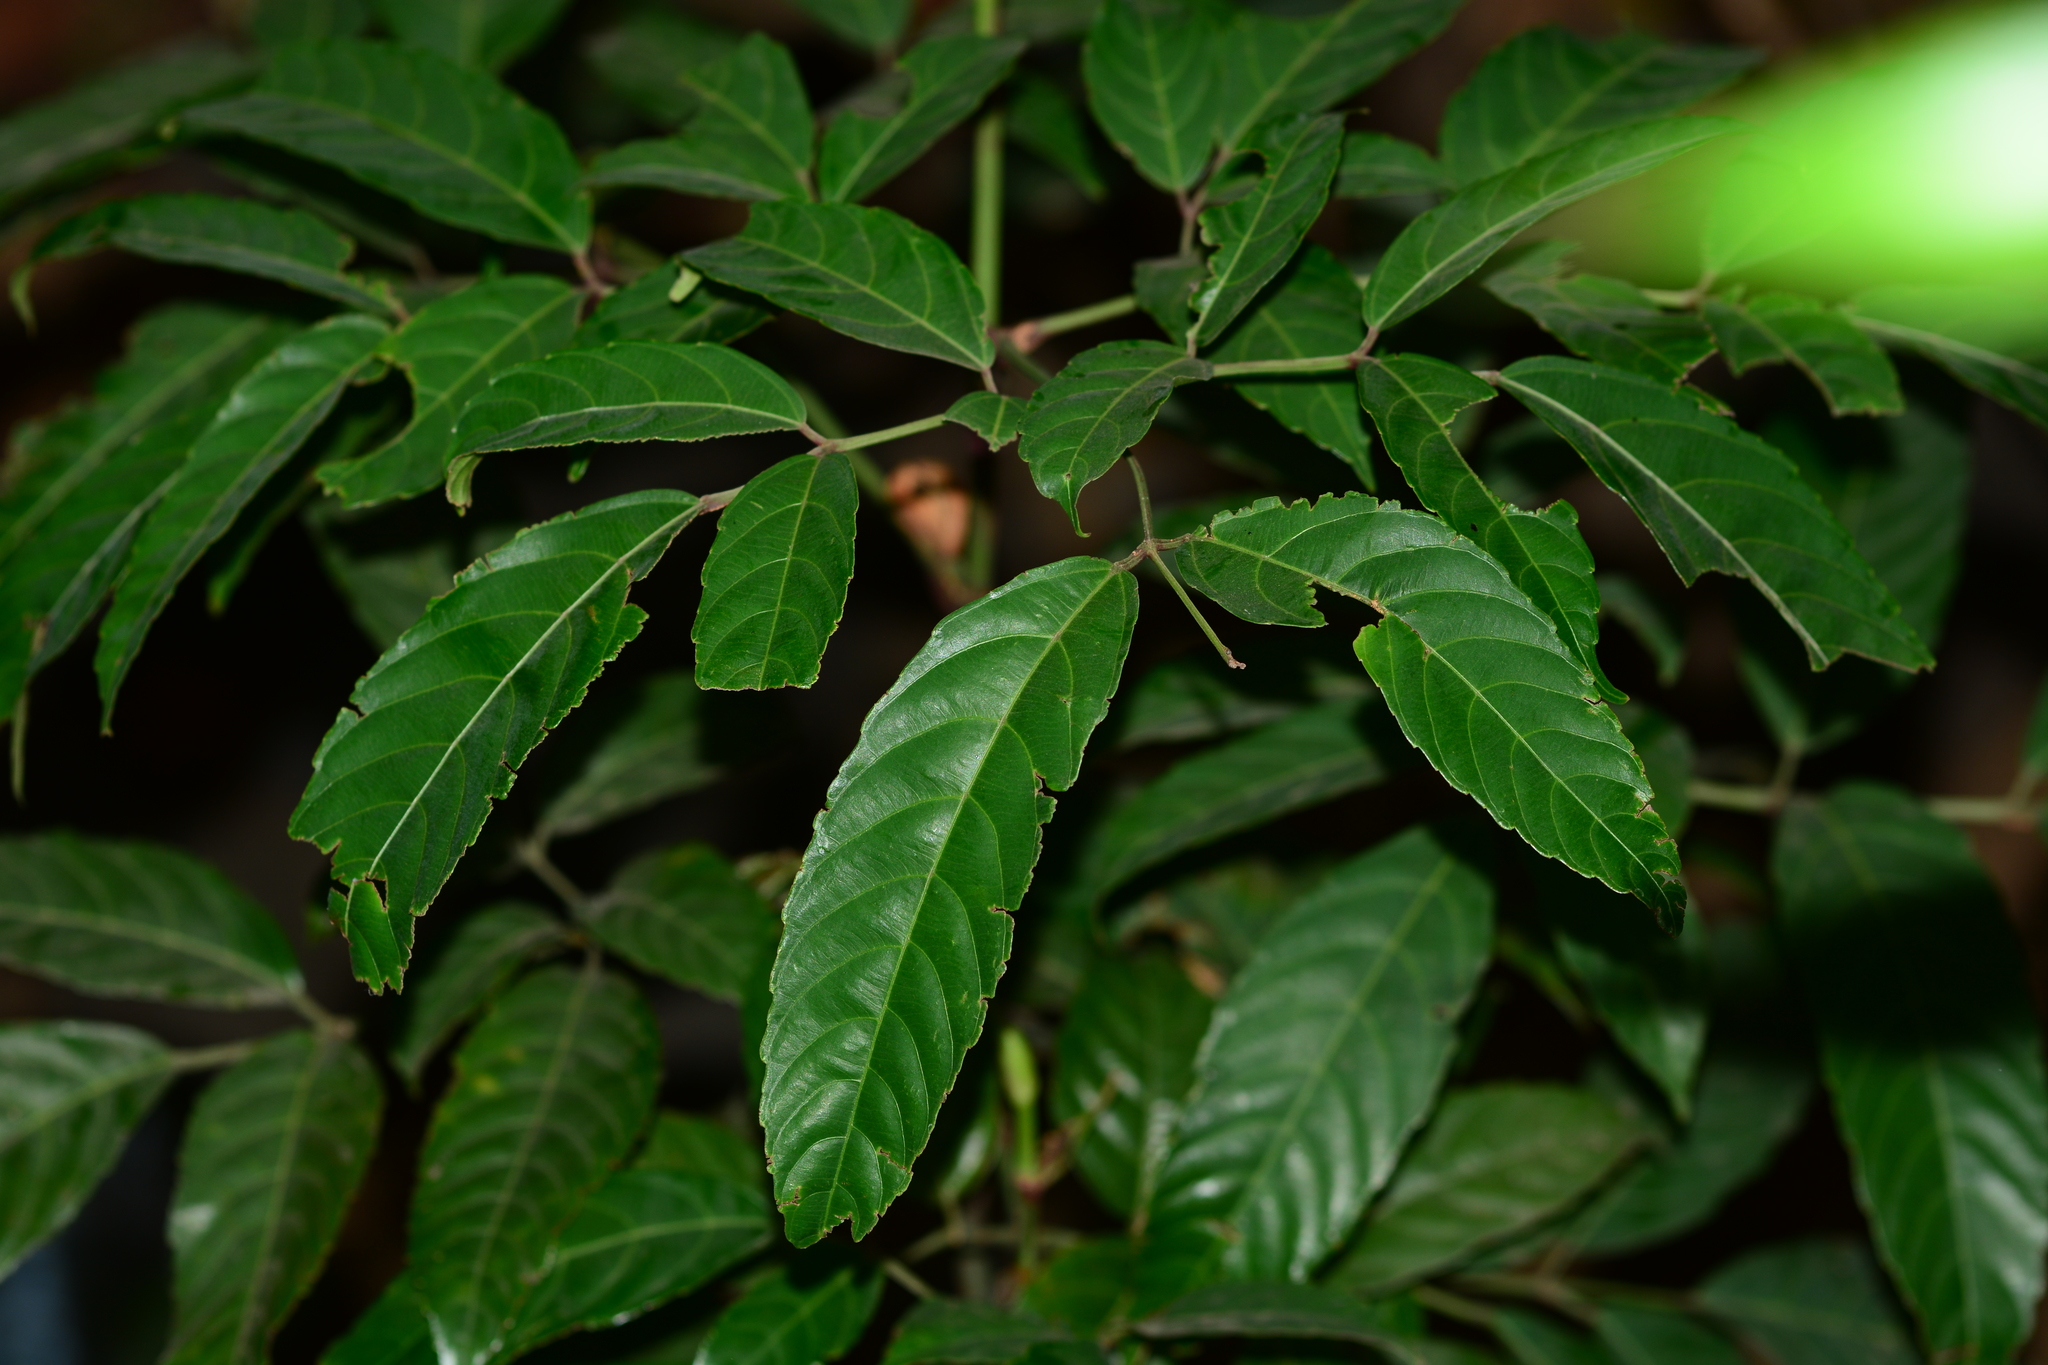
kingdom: Plantae
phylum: Tracheophyta
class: Magnoliopsida
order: Vitales
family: Vitaceae
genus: Leea
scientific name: Leea indica
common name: Bandicoot-berry
